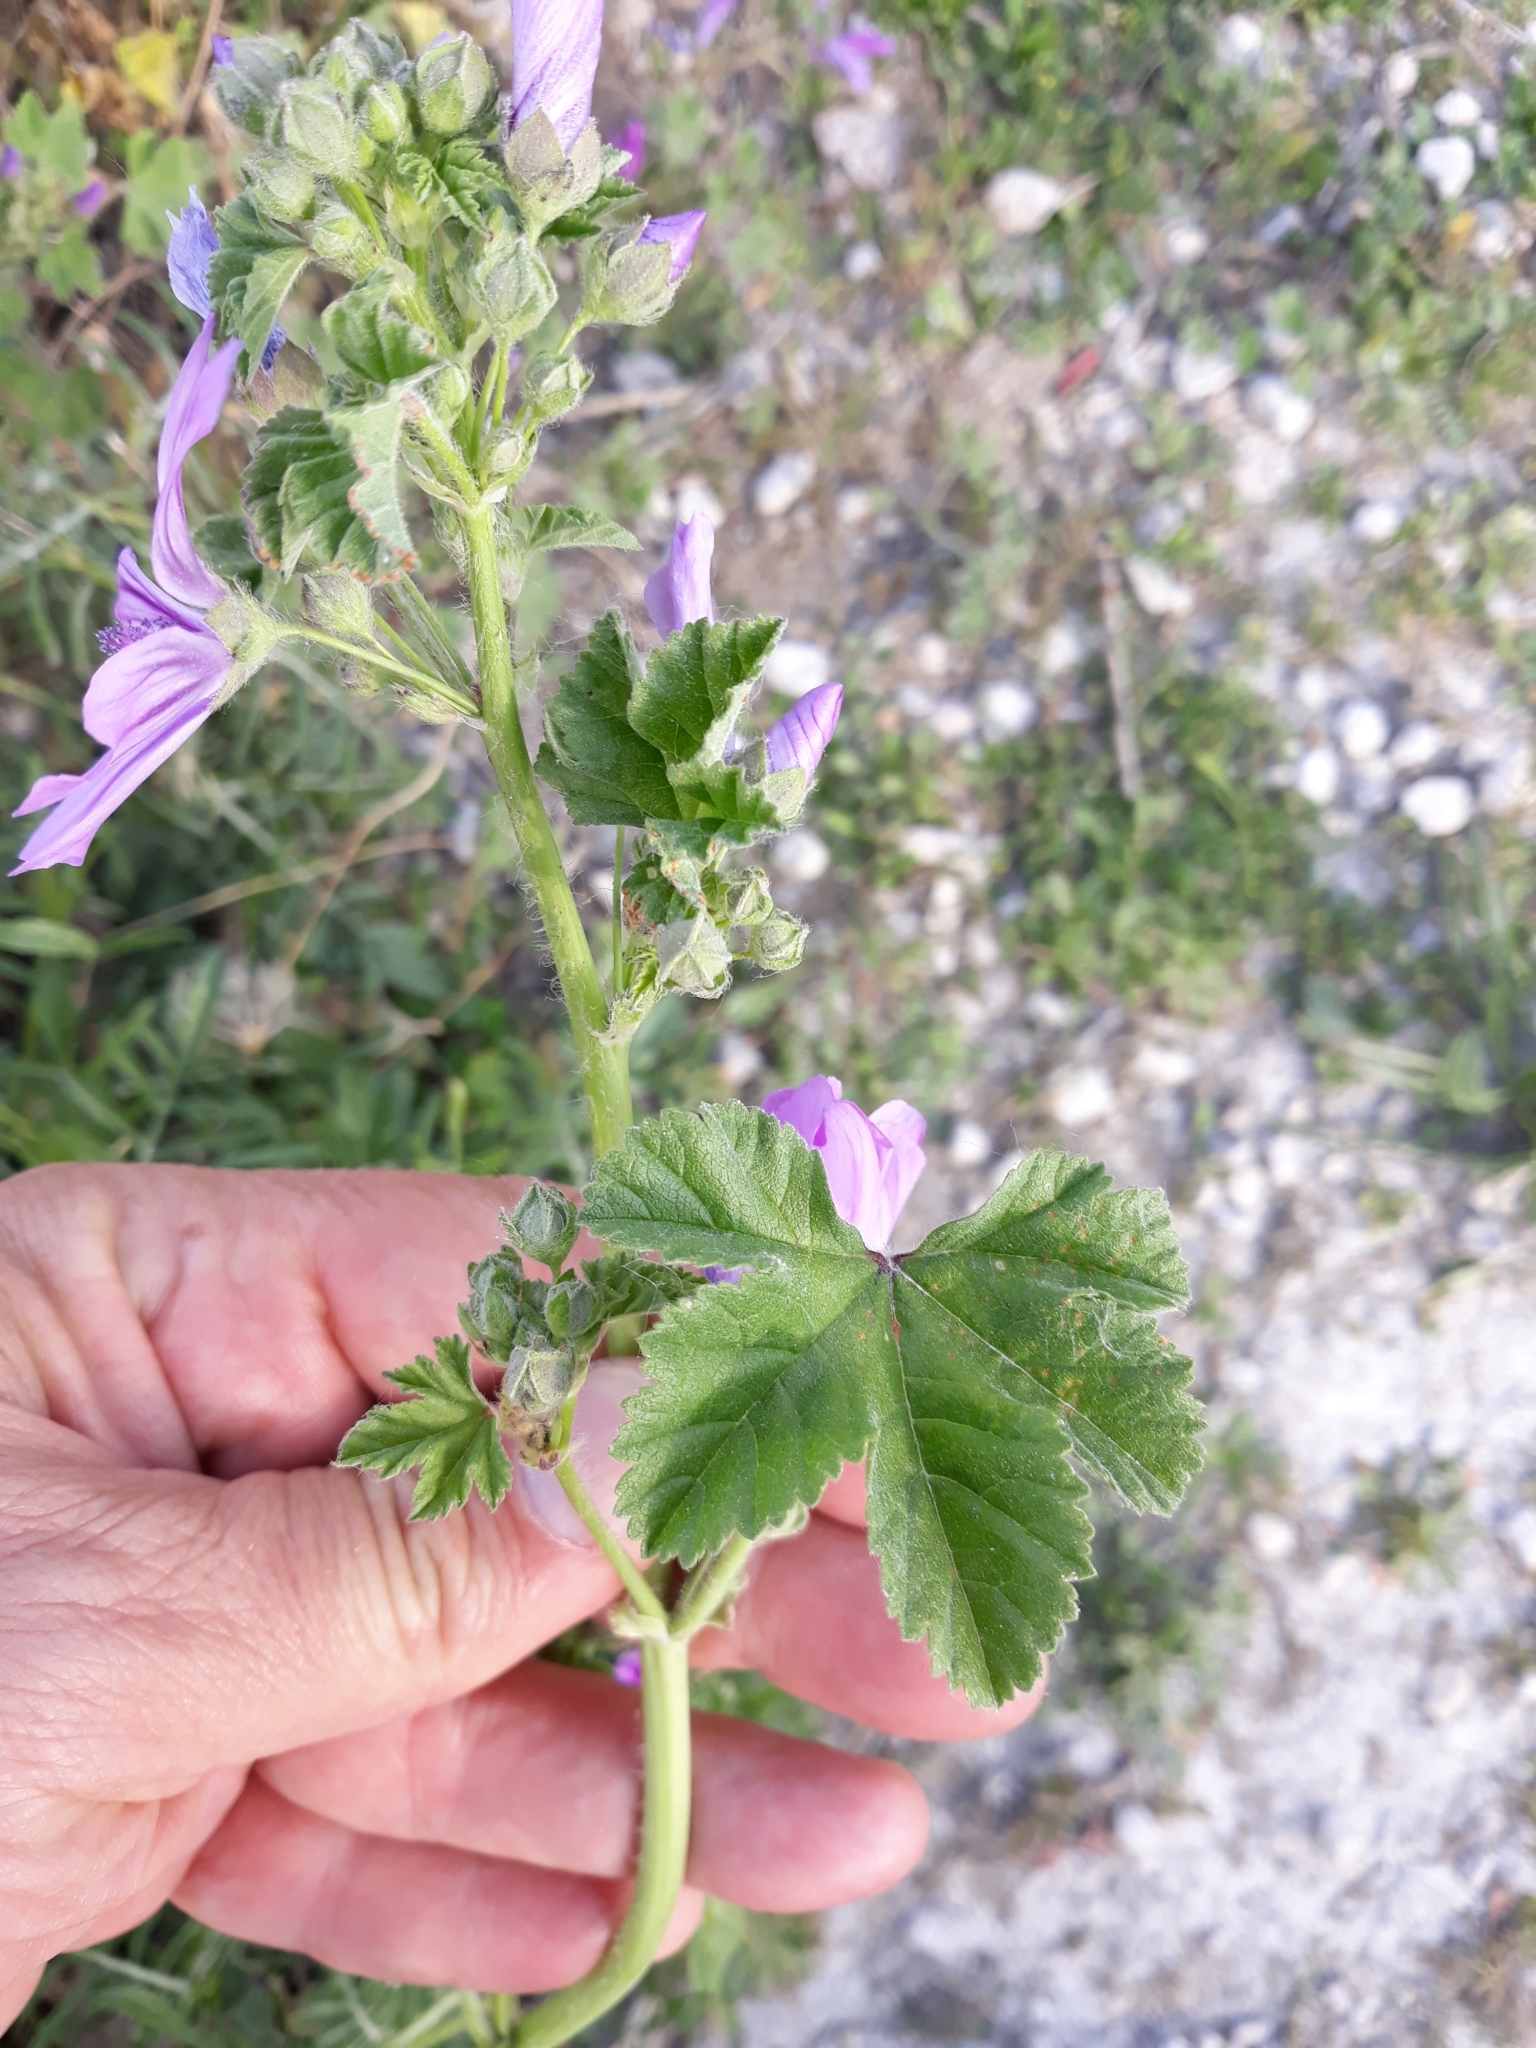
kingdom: Plantae
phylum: Tracheophyta
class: Magnoliopsida
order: Malvales
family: Malvaceae
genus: Malva
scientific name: Malva sylvestris
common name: Common mallow
